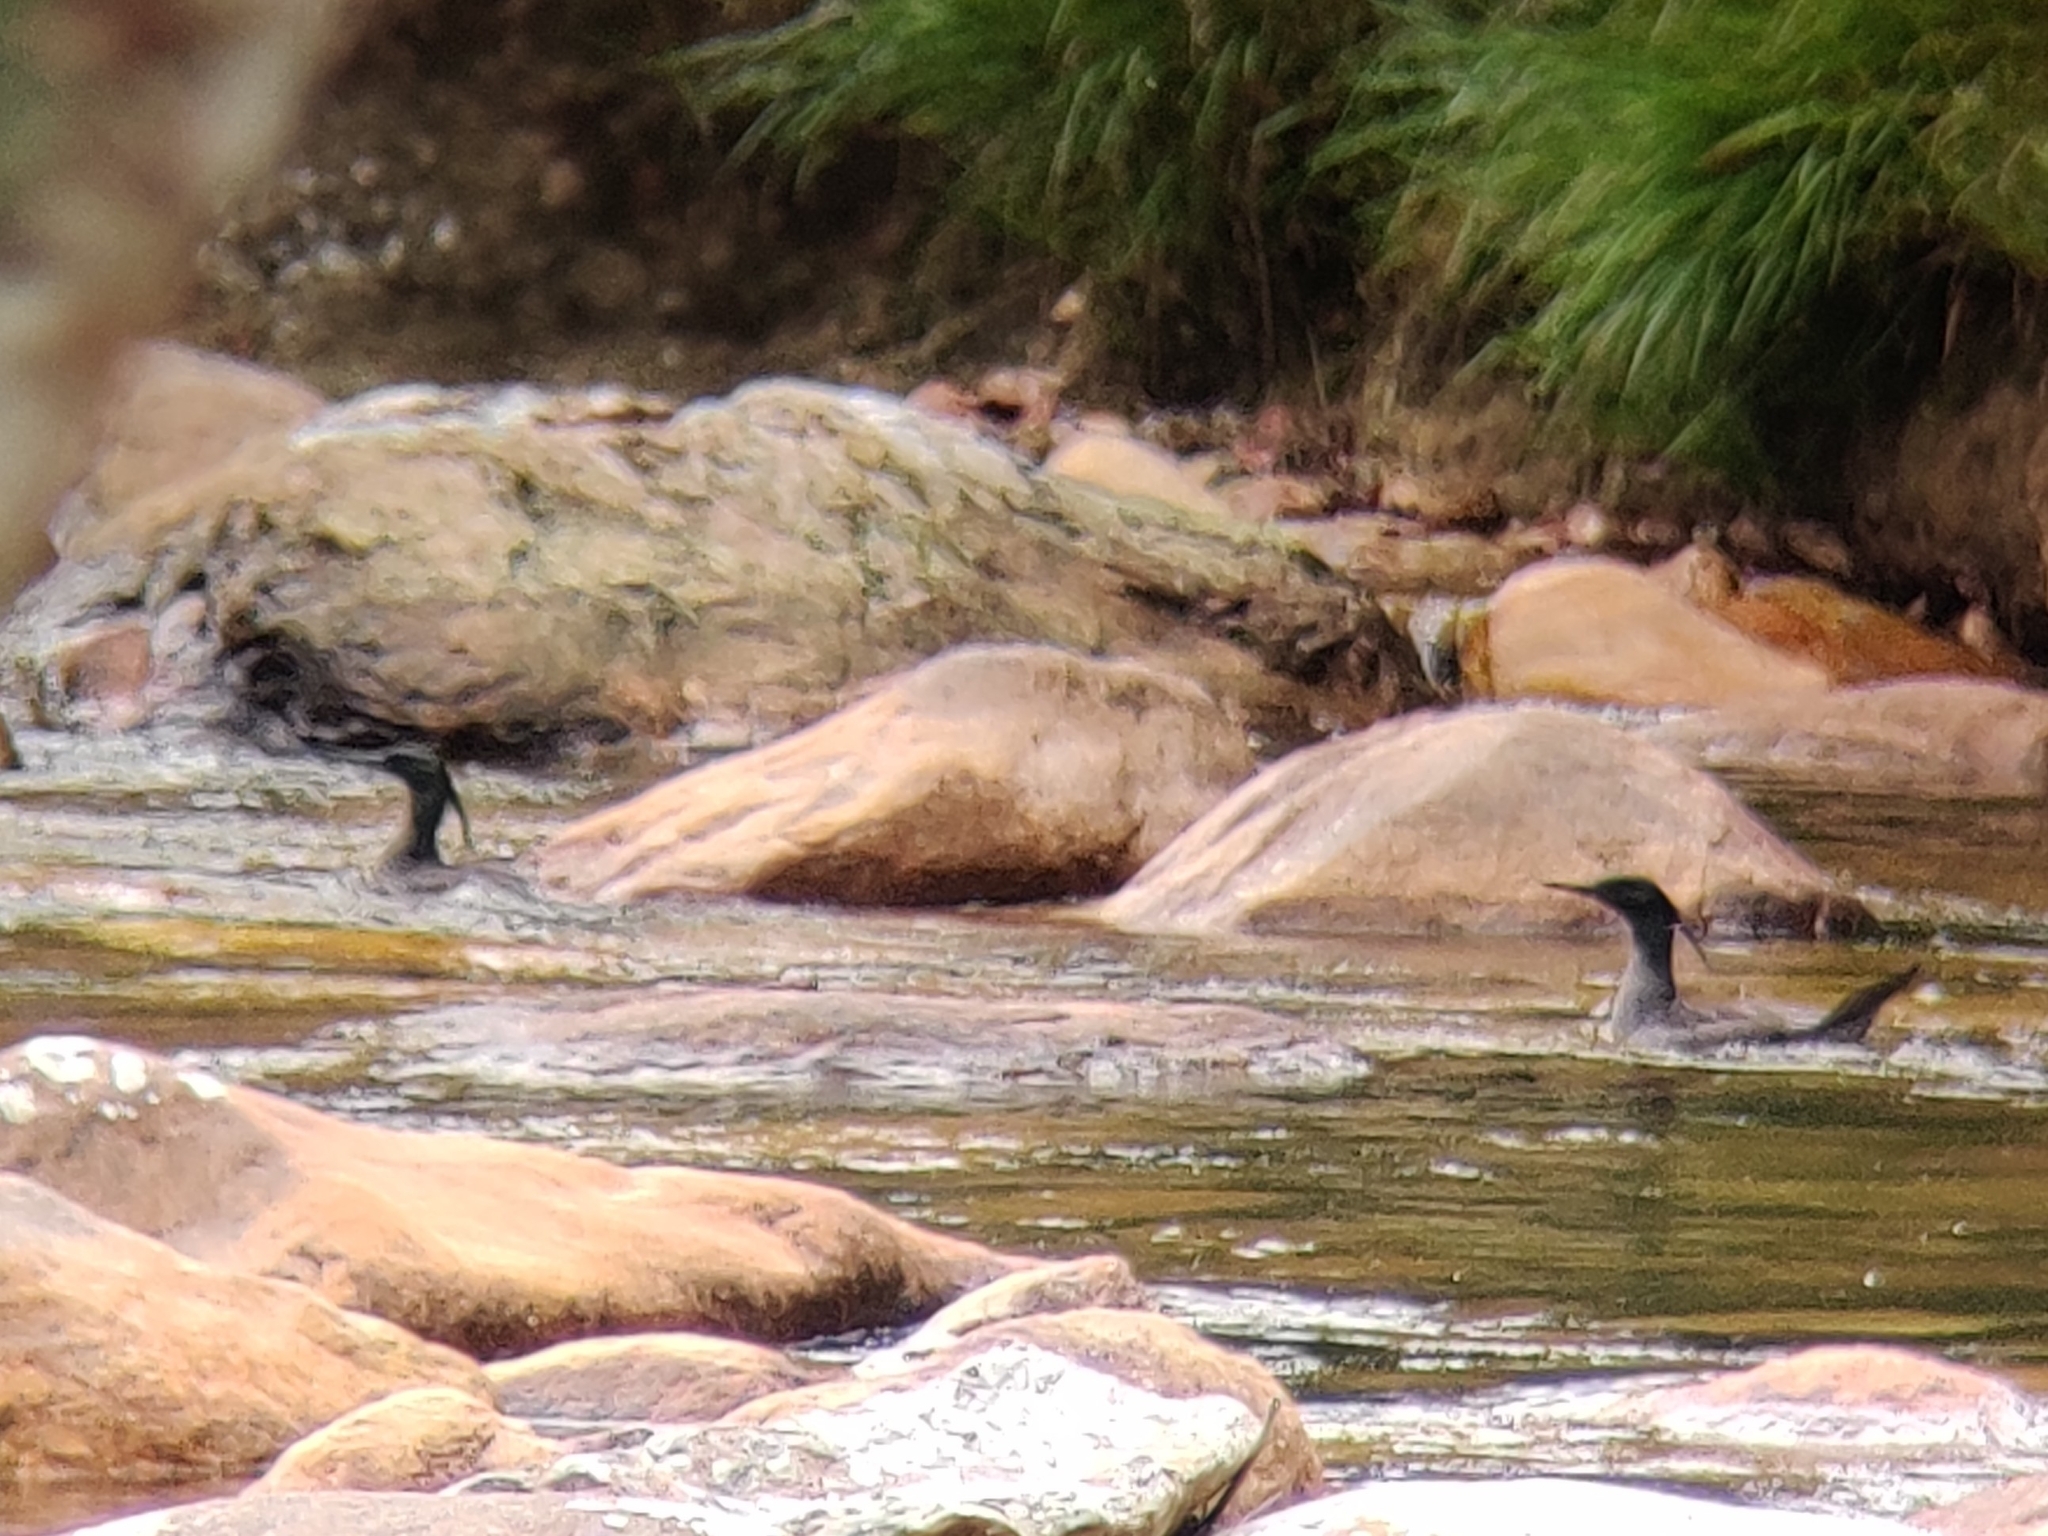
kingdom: Animalia
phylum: Chordata
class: Aves
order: Anseriformes
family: Anatidae
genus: Mergus
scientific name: Mergus octosetaceus
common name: Brazilian merganser
